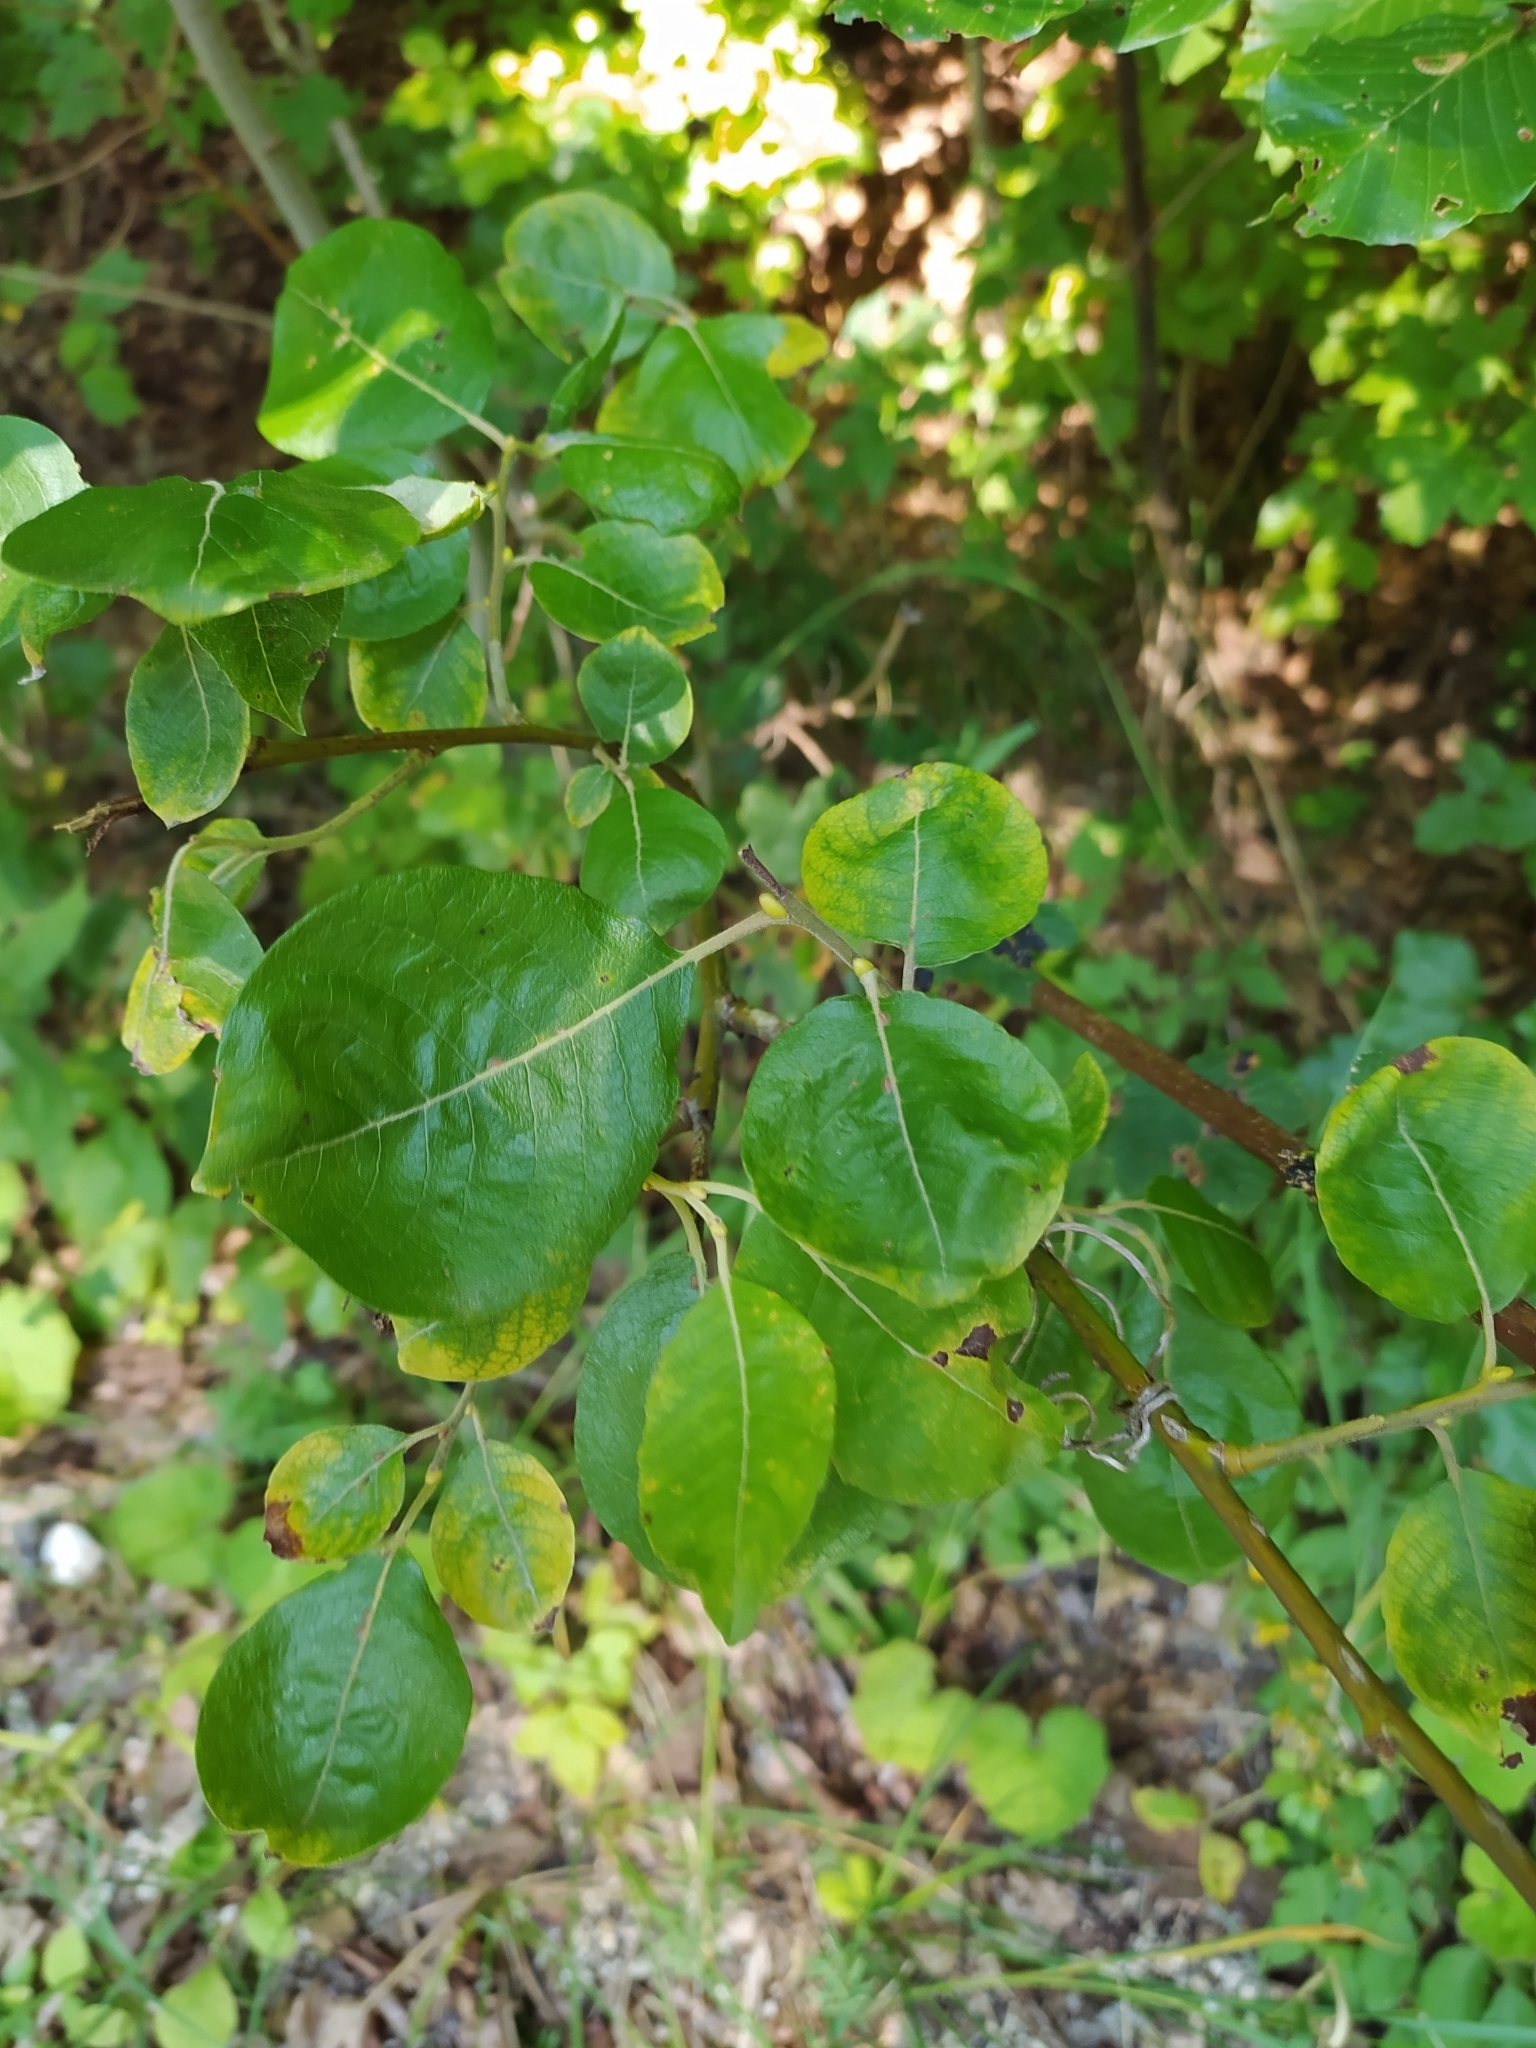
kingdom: Plantae
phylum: Tracheophyta
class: Magnoliopsida
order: Malpighiales
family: Salicaceae
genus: Salix
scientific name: Salix caprea
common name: Goat willow
